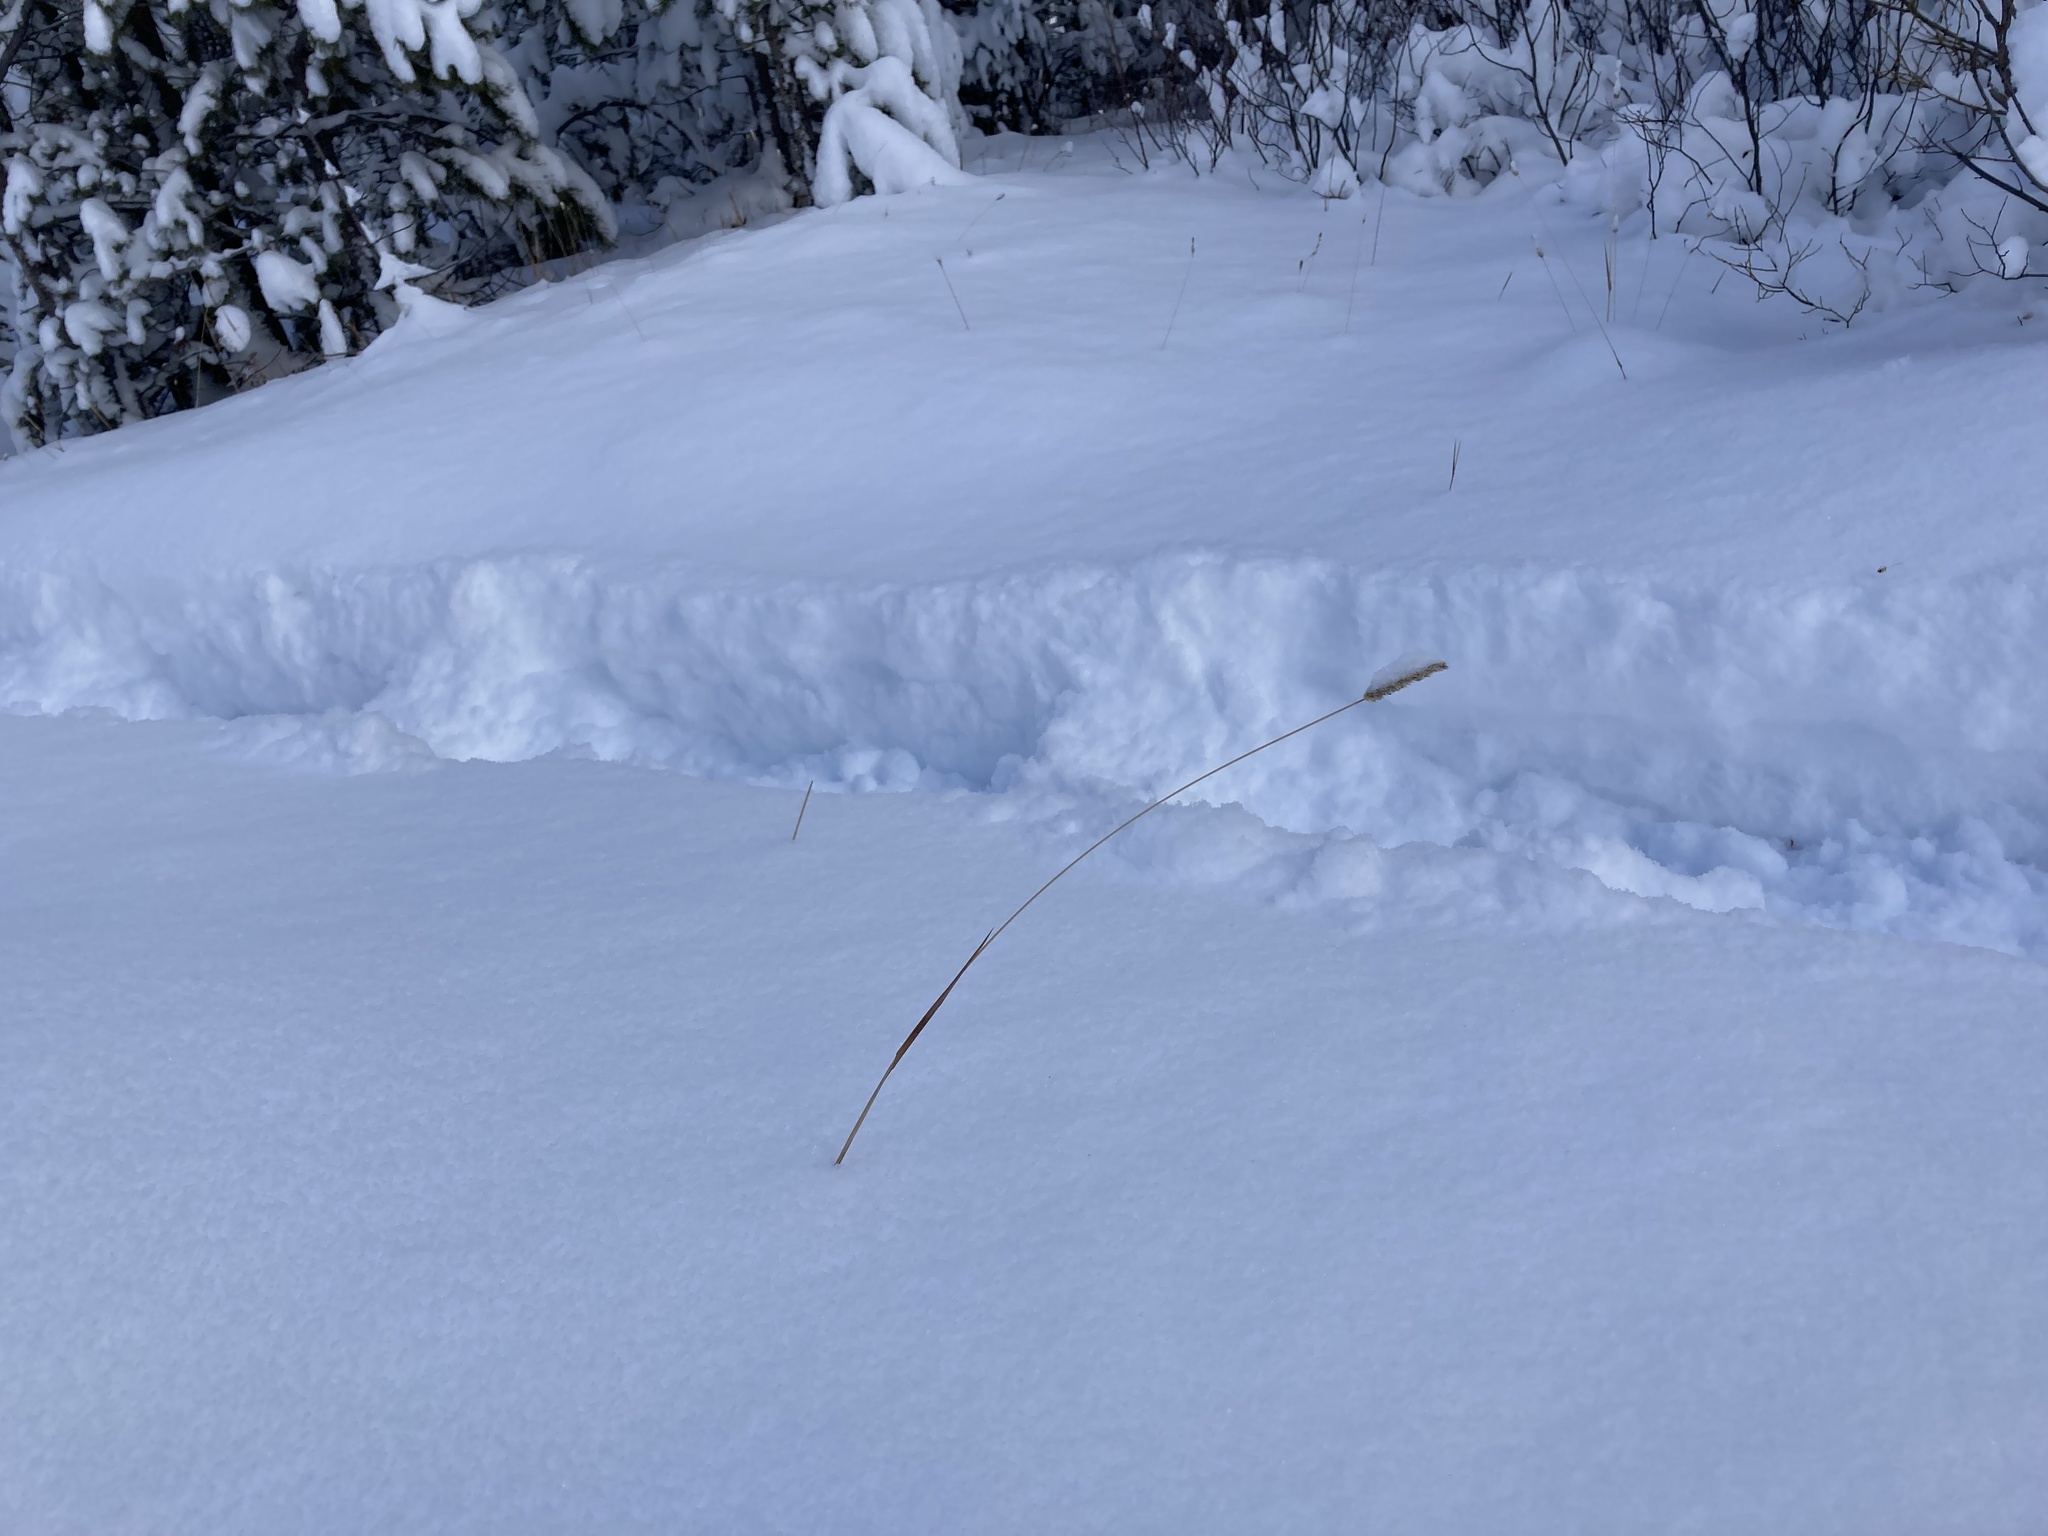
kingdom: Plantae
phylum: Tracheophyta
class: Liliopsida
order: Poales
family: Poaceae
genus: Phleum
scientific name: Phleum pratense
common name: Timothy grass
